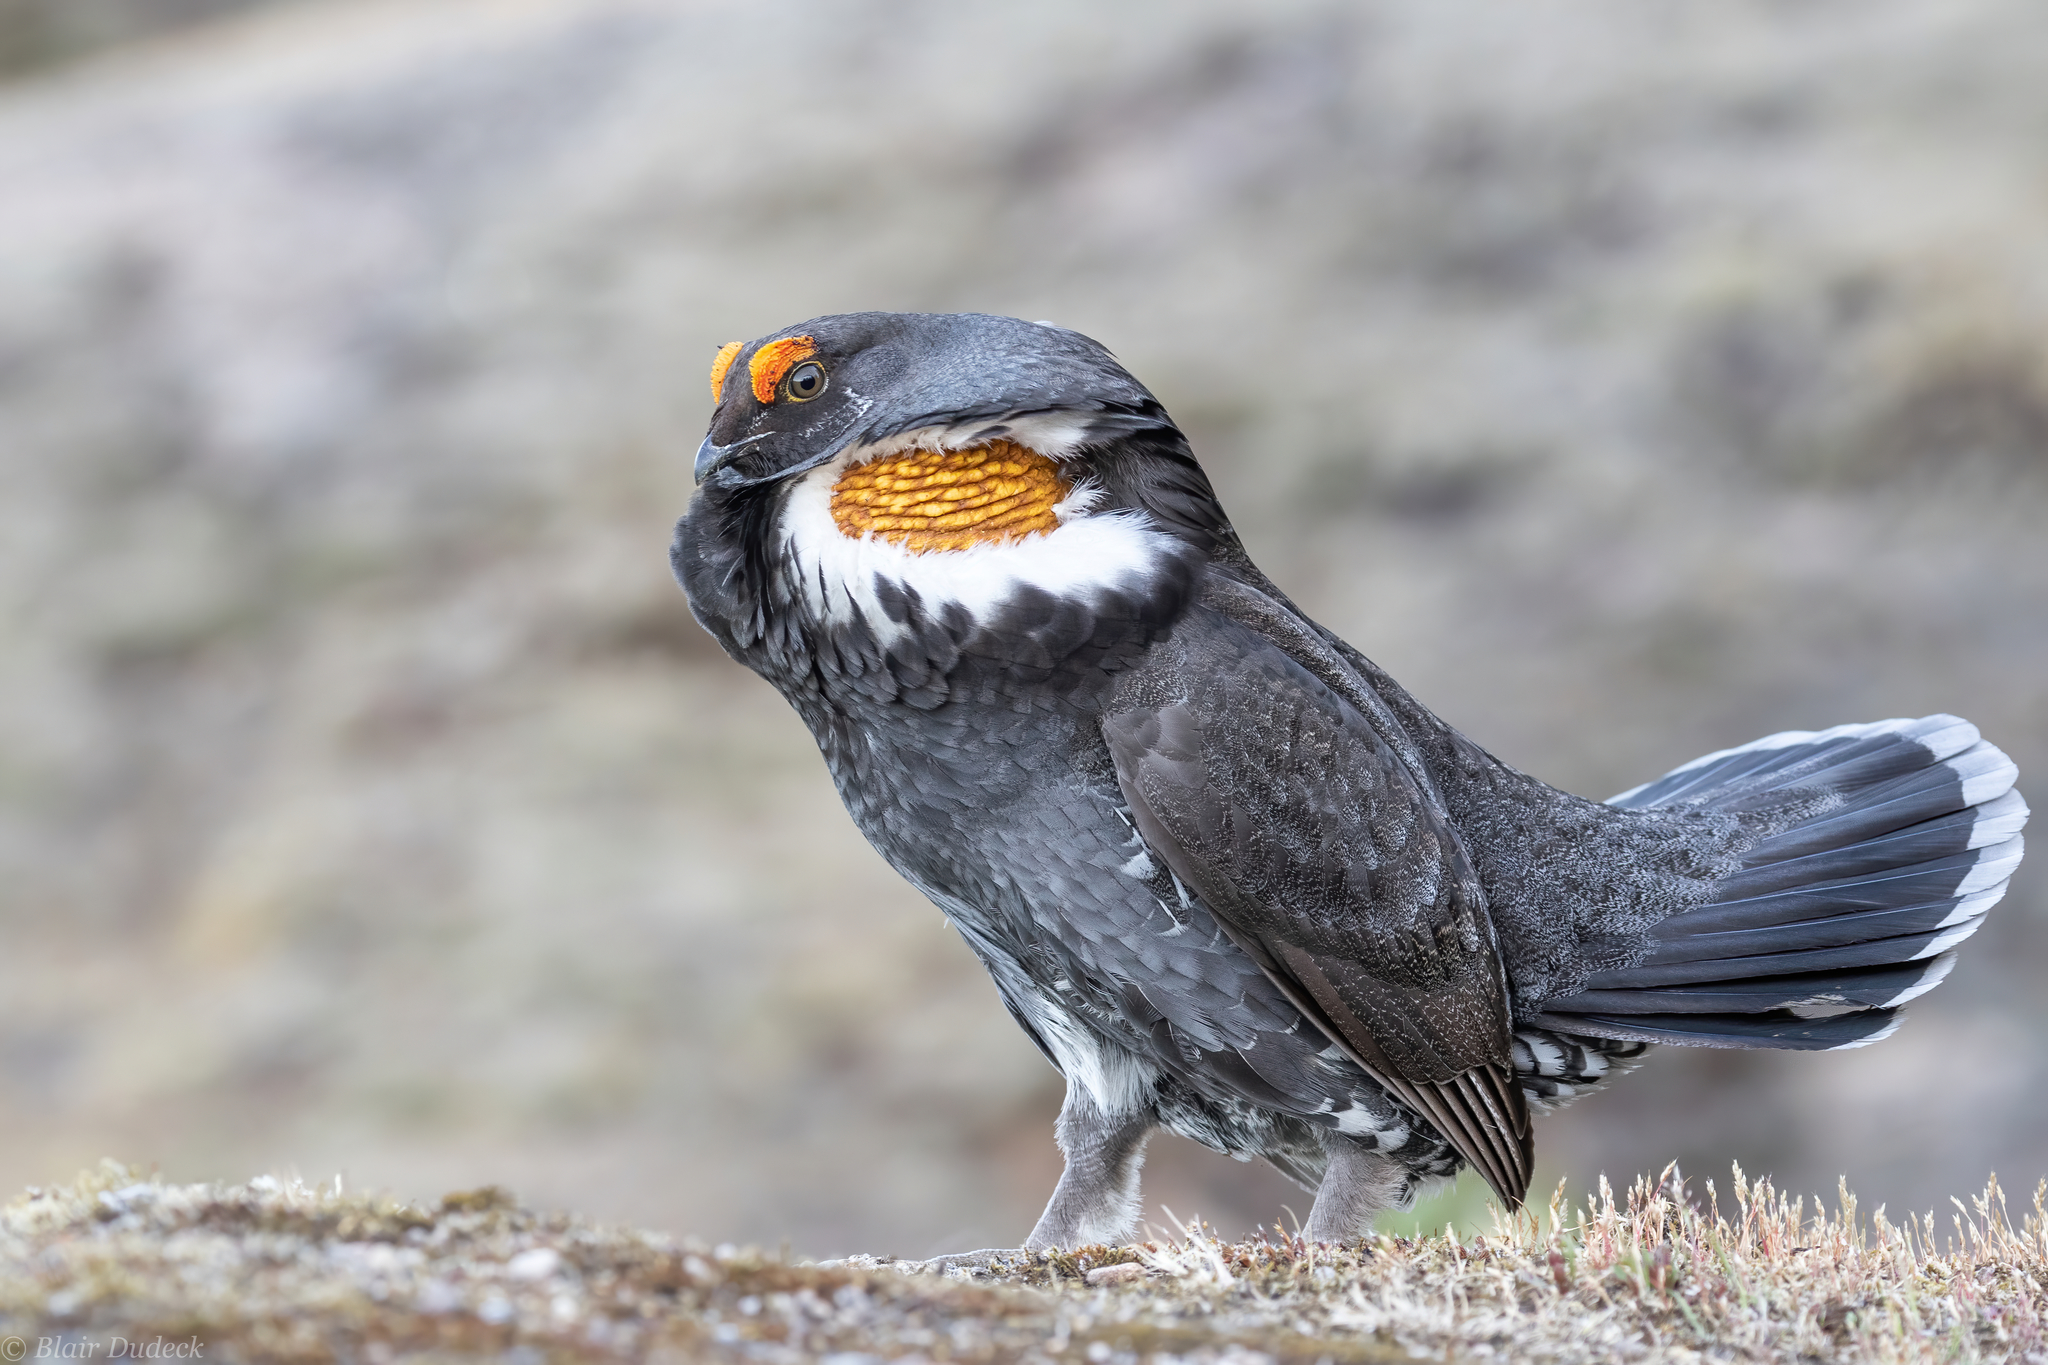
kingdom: Animalia
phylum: Chordata
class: Aves
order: Galliformes
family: Phasianidae
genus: Dendragapus
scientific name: Dendragapus fuliginosus
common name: Sooty grouse
